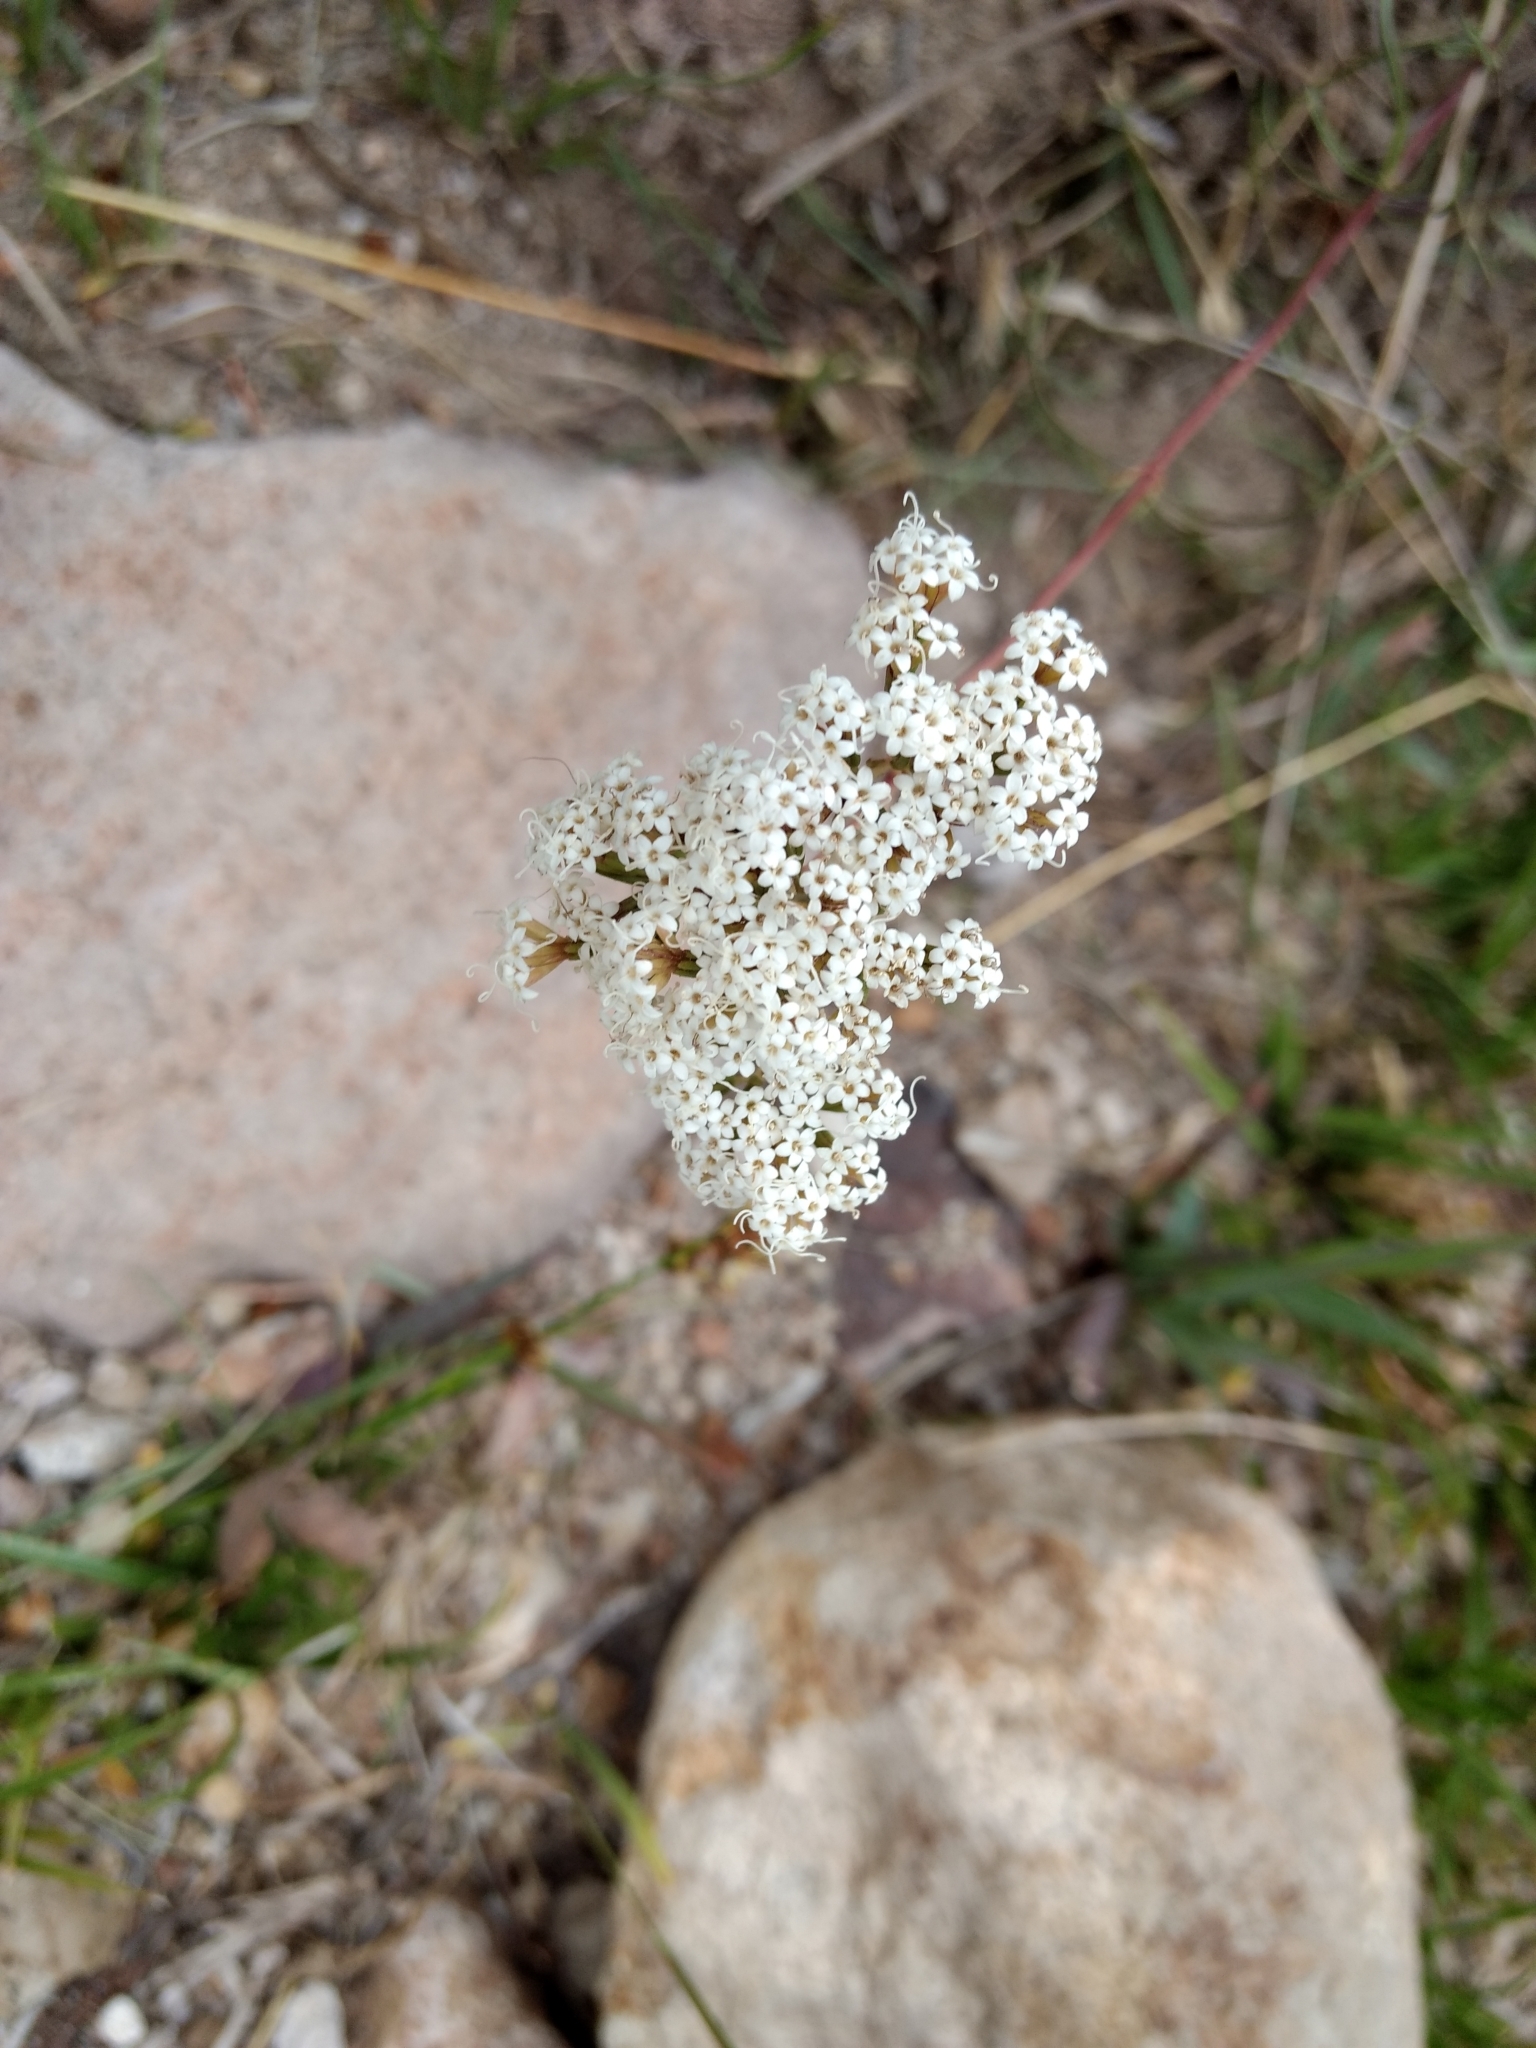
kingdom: Plantae
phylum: Tracheophyta
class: Magnoliopsida
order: Asterales
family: Asteraceae
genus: Stevia
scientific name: Stevia lucida
